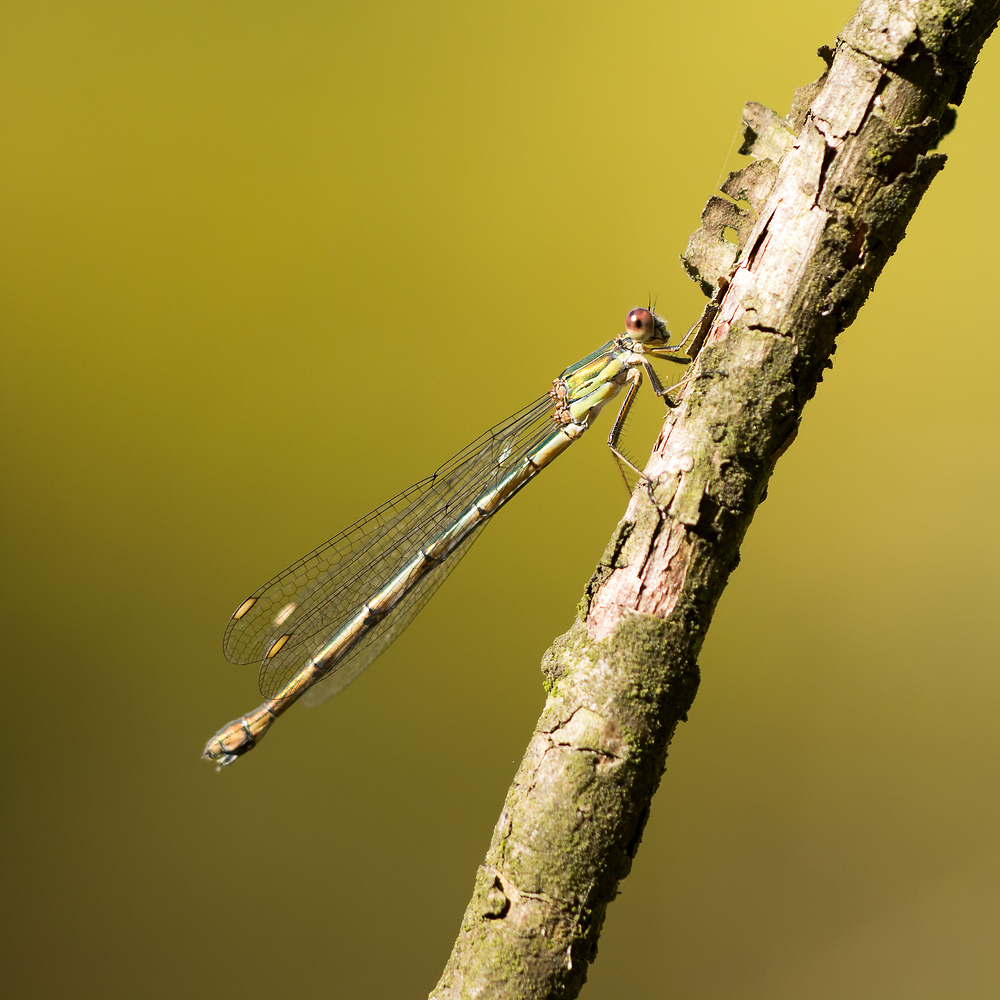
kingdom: Animalia
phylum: Arthropoda
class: Insecta
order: Odonata
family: Lestidae
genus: Chalcolestes
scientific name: Chalcolestes viridis
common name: Green emerald damselfly
